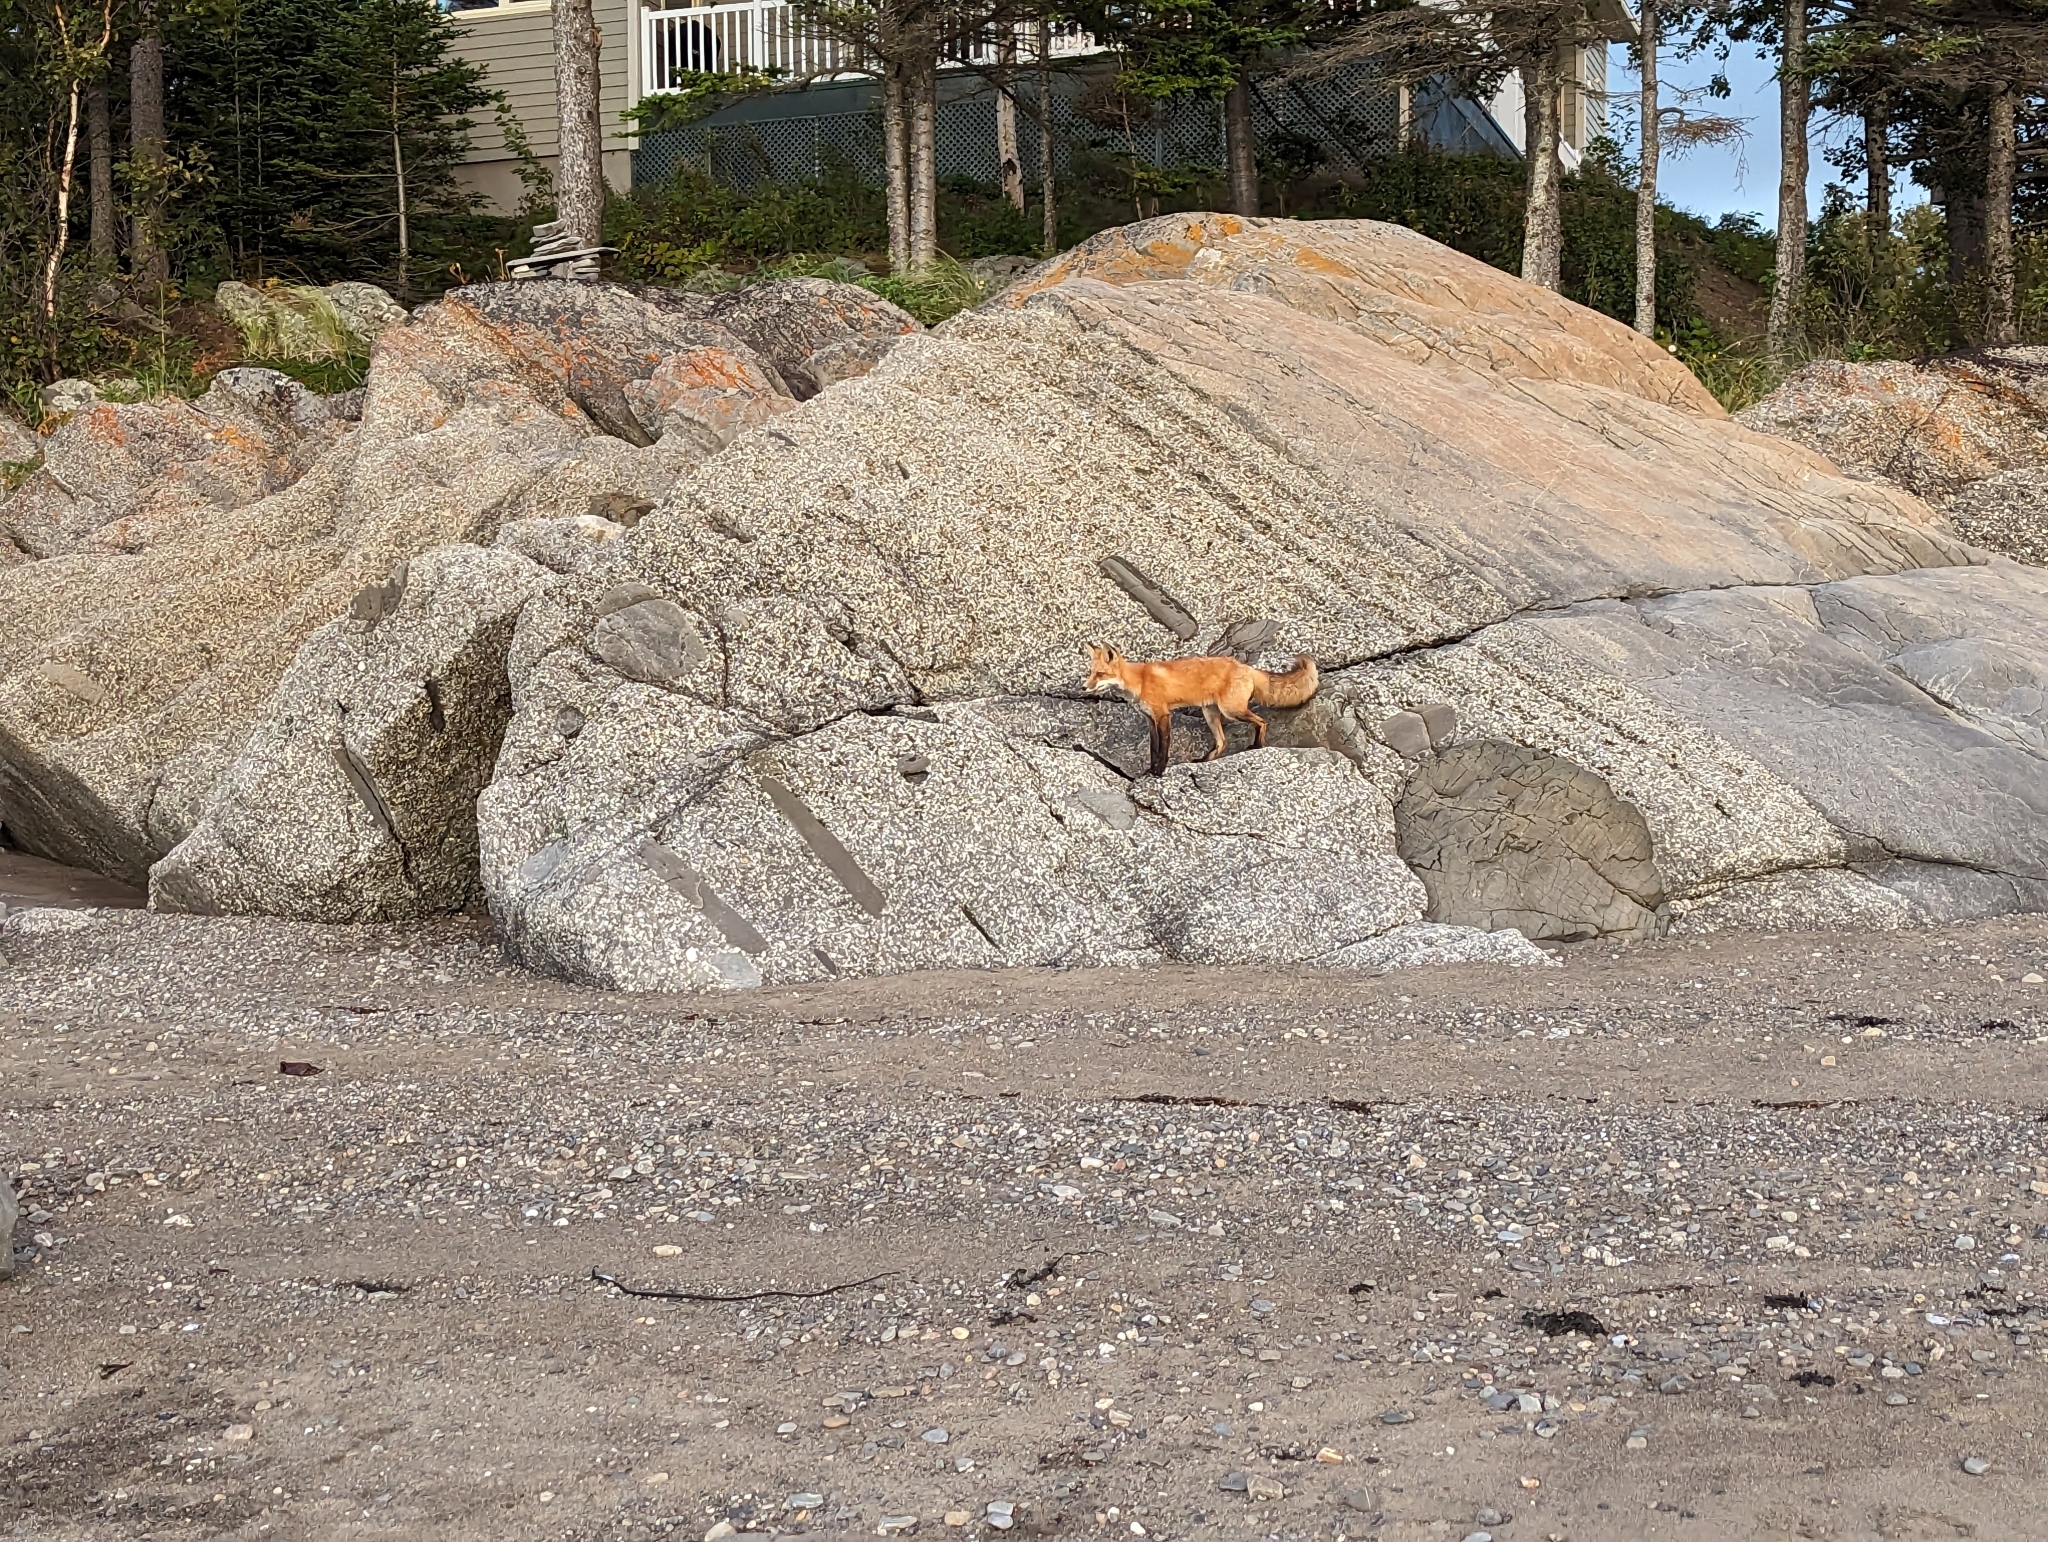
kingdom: Animalia
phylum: Chordata
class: Mammalia
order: Carnivora
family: Canidae
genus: Vulpes
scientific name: Vulpes vulpes
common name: Red fox
